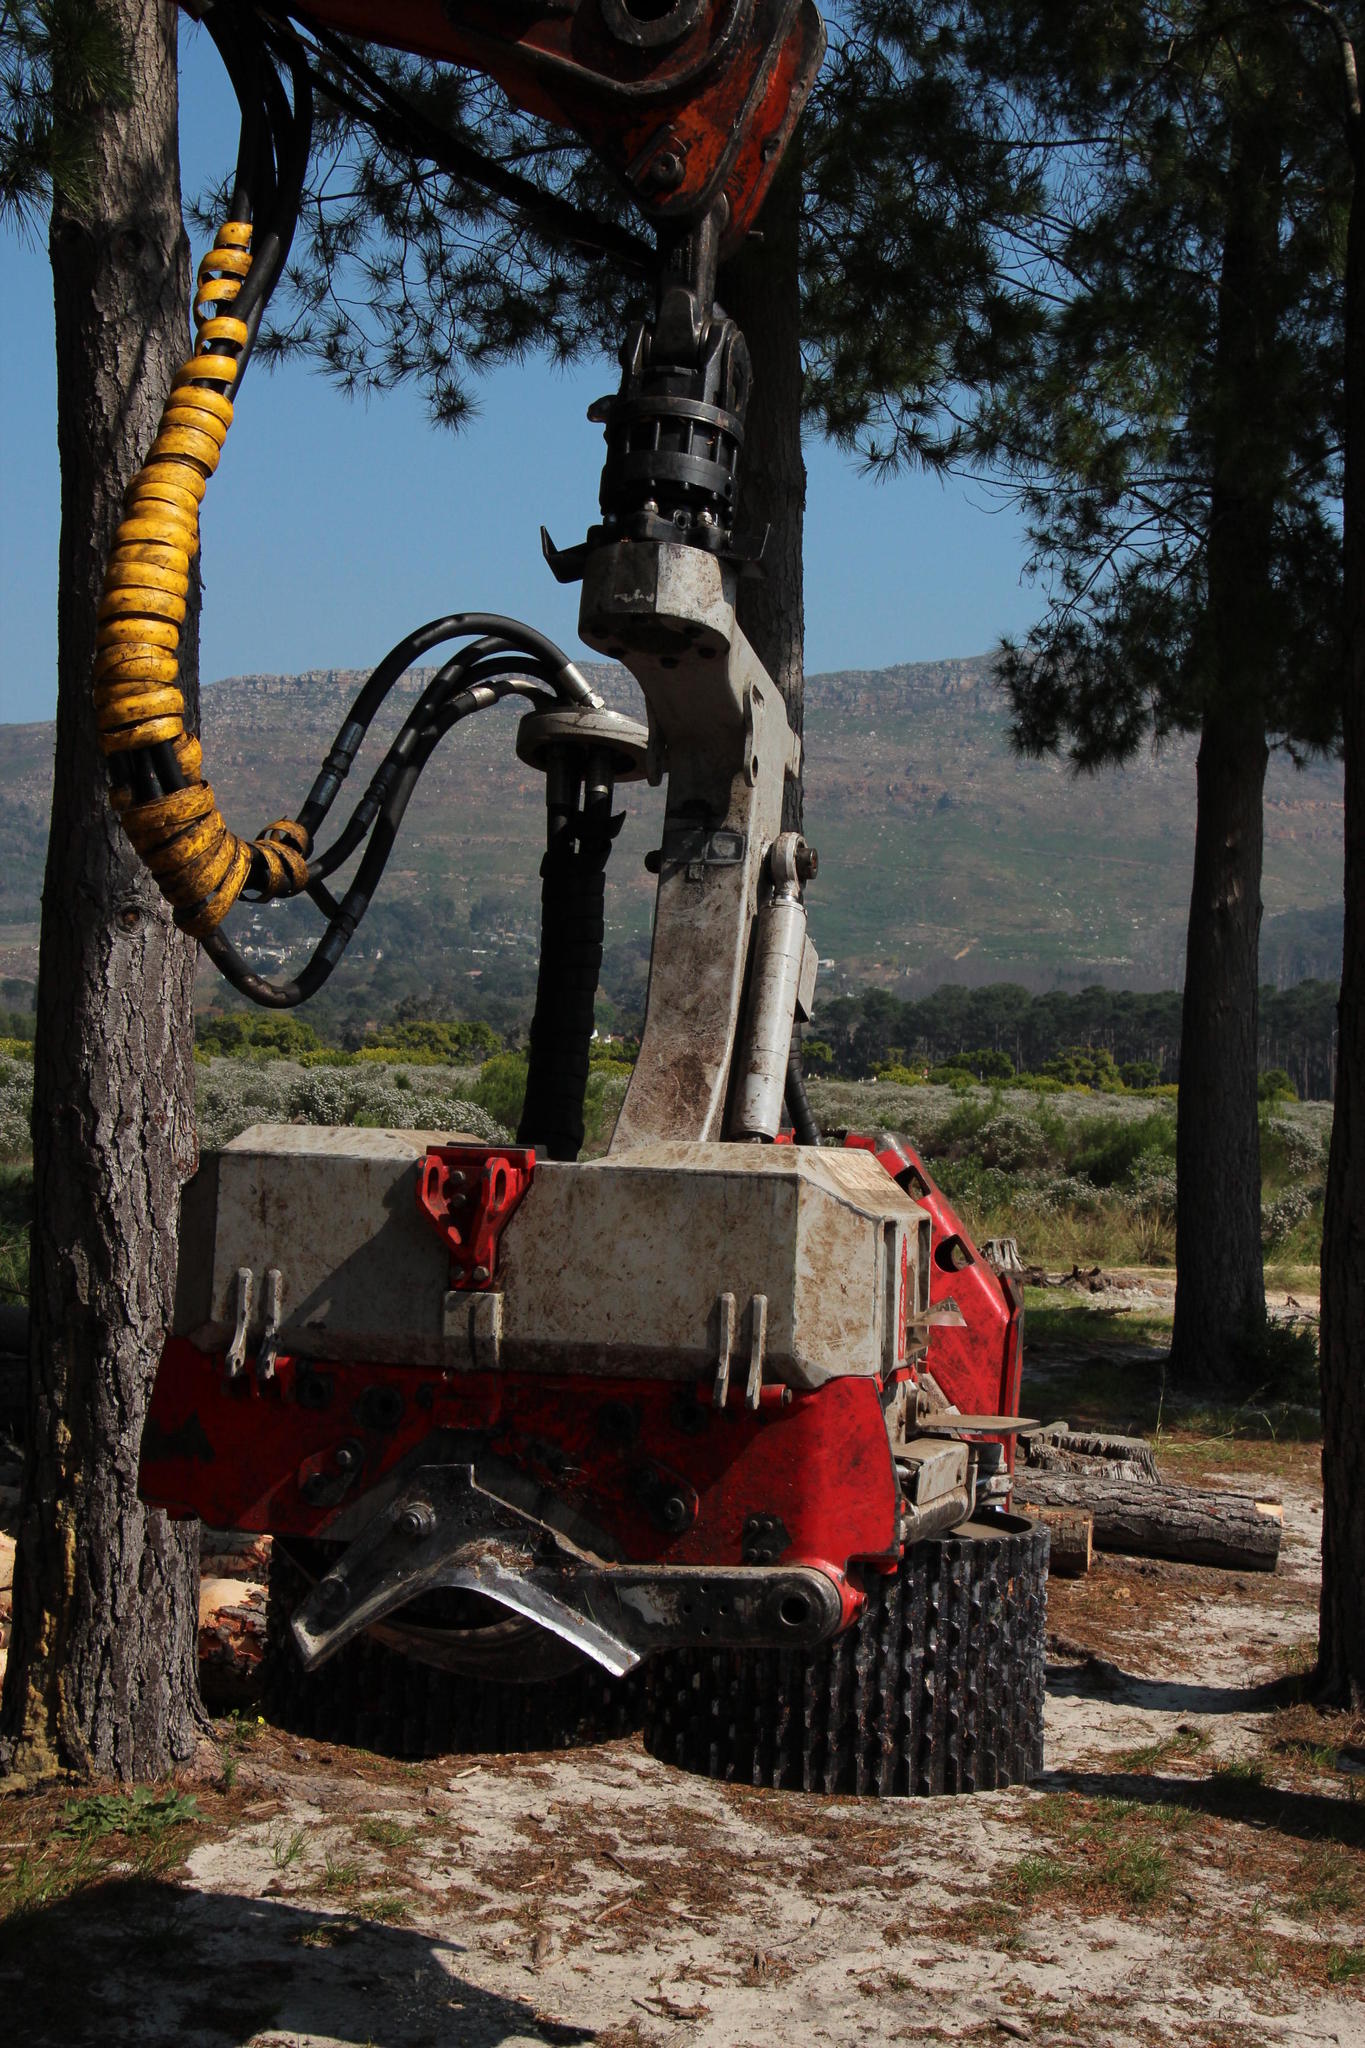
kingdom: Plantae
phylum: Tracheophyta
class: Pinopsida
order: Pinales
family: Pinaceae
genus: Pinus
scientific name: Pinus radiata
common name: Monterey pine
